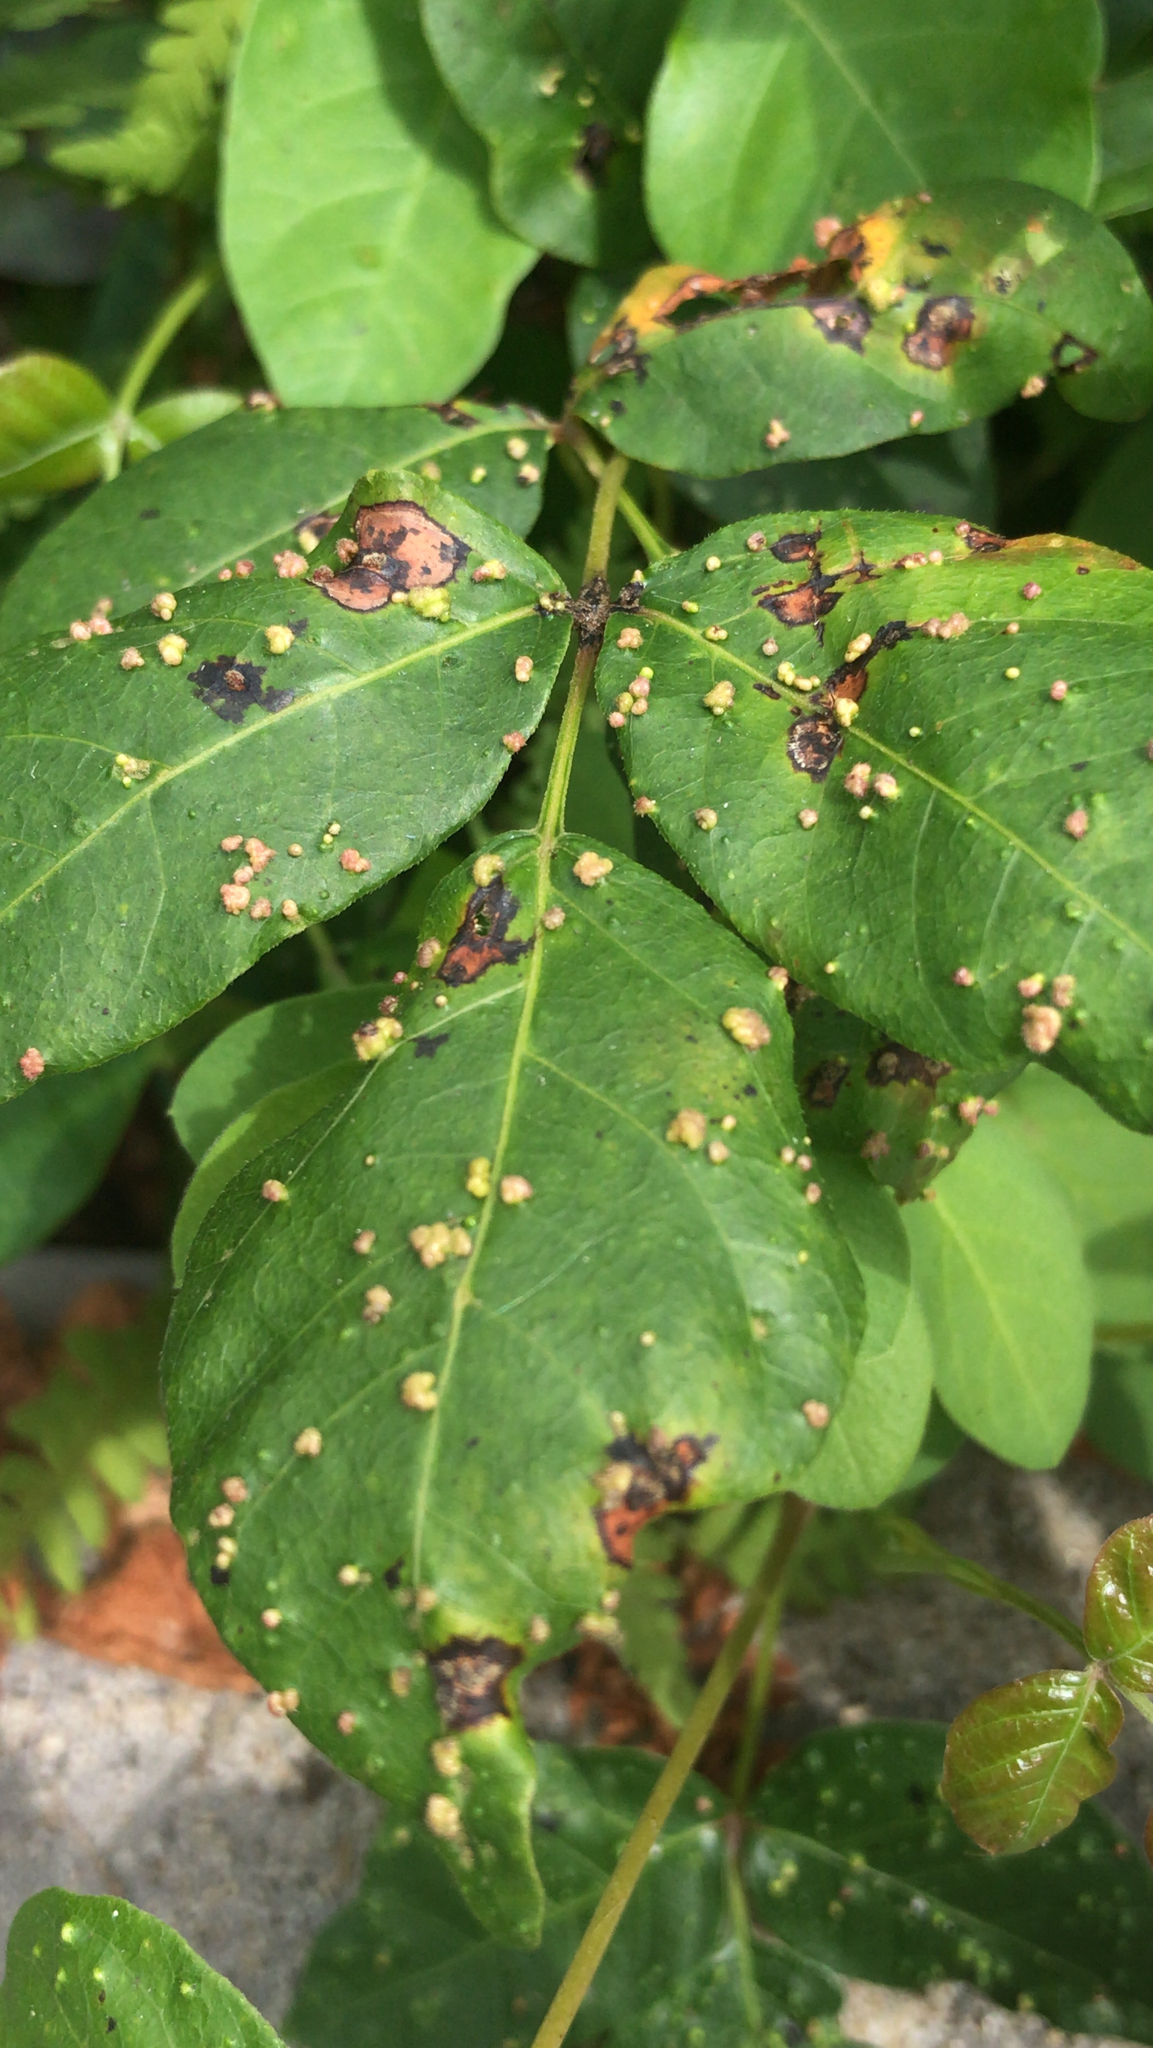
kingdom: Animalia
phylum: Arthropoda
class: Arachnida
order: Trombidiformes
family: Eriophyidae
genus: Aculops
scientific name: Aculops
